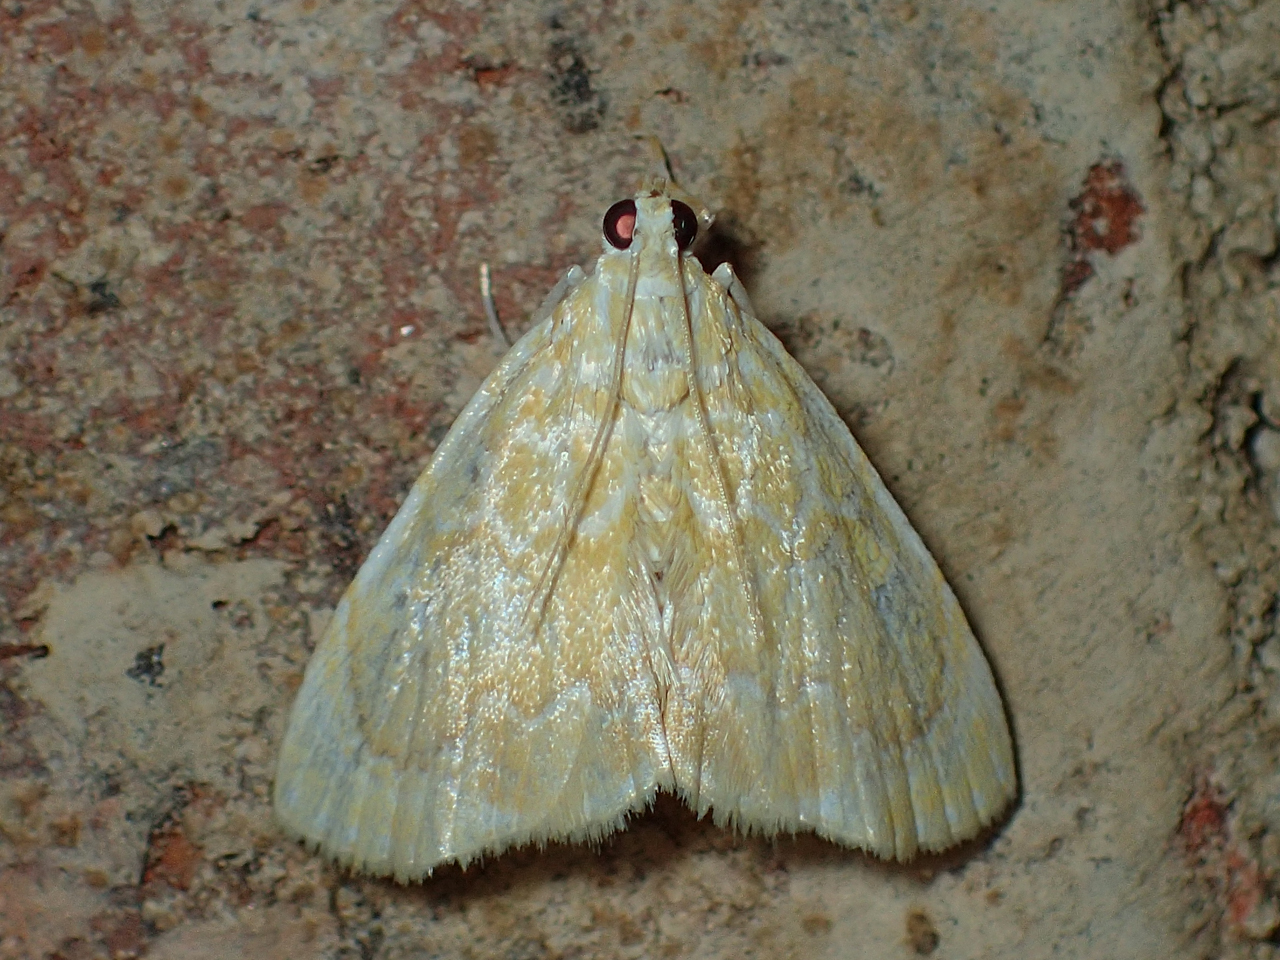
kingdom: Animalia
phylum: Arthropoda
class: Insecta
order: Lepidoptera
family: Crambidae
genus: Glaphyria
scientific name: Glaphyria glaphyralis
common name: Common glaphyria moth
